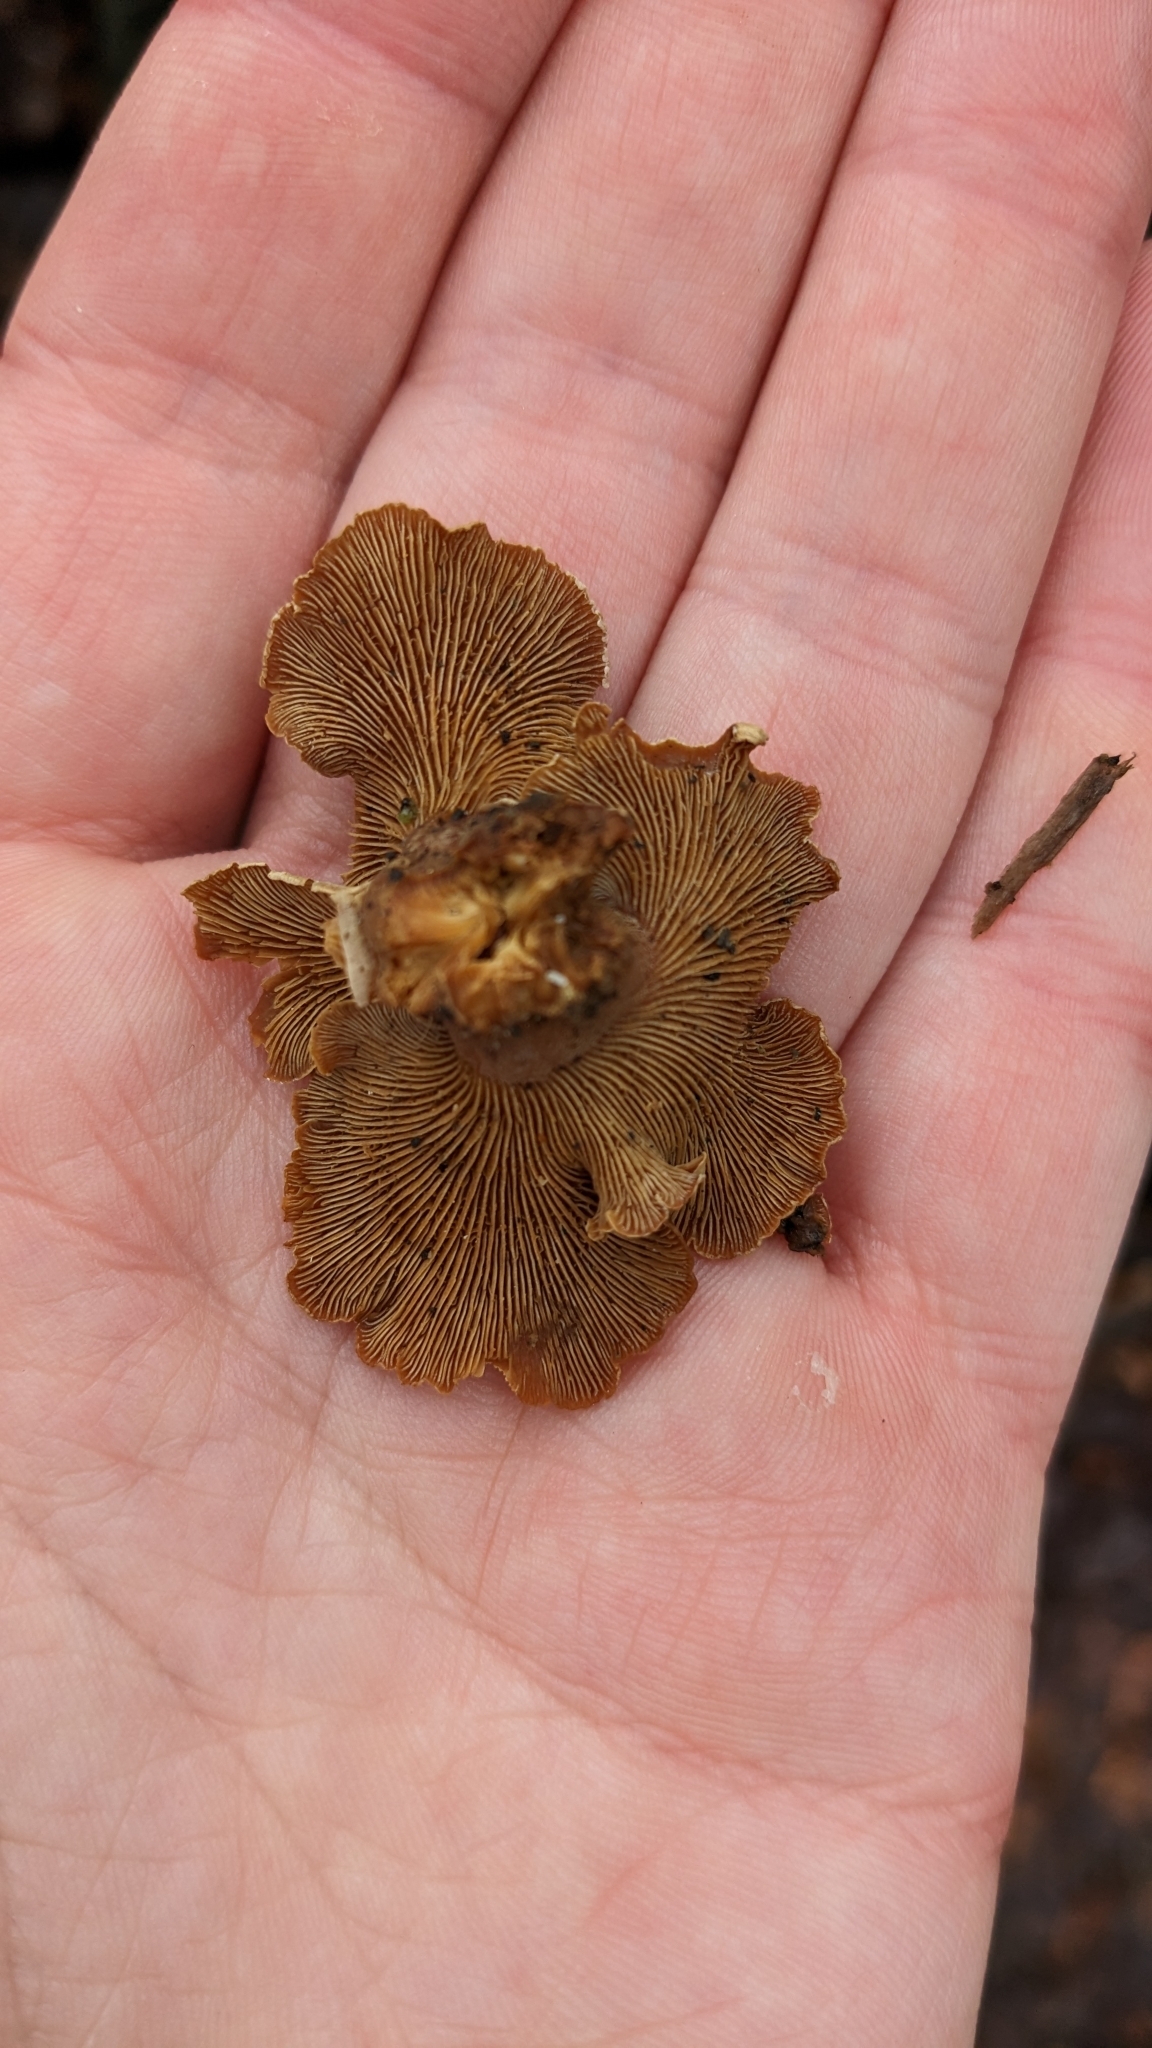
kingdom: Fungi
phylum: Basidiomycota
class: Agaricomycetes
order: Agaricales
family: Mycenaceae
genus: Panellus
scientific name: Panellus stipticus
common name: Bitter oysterling
